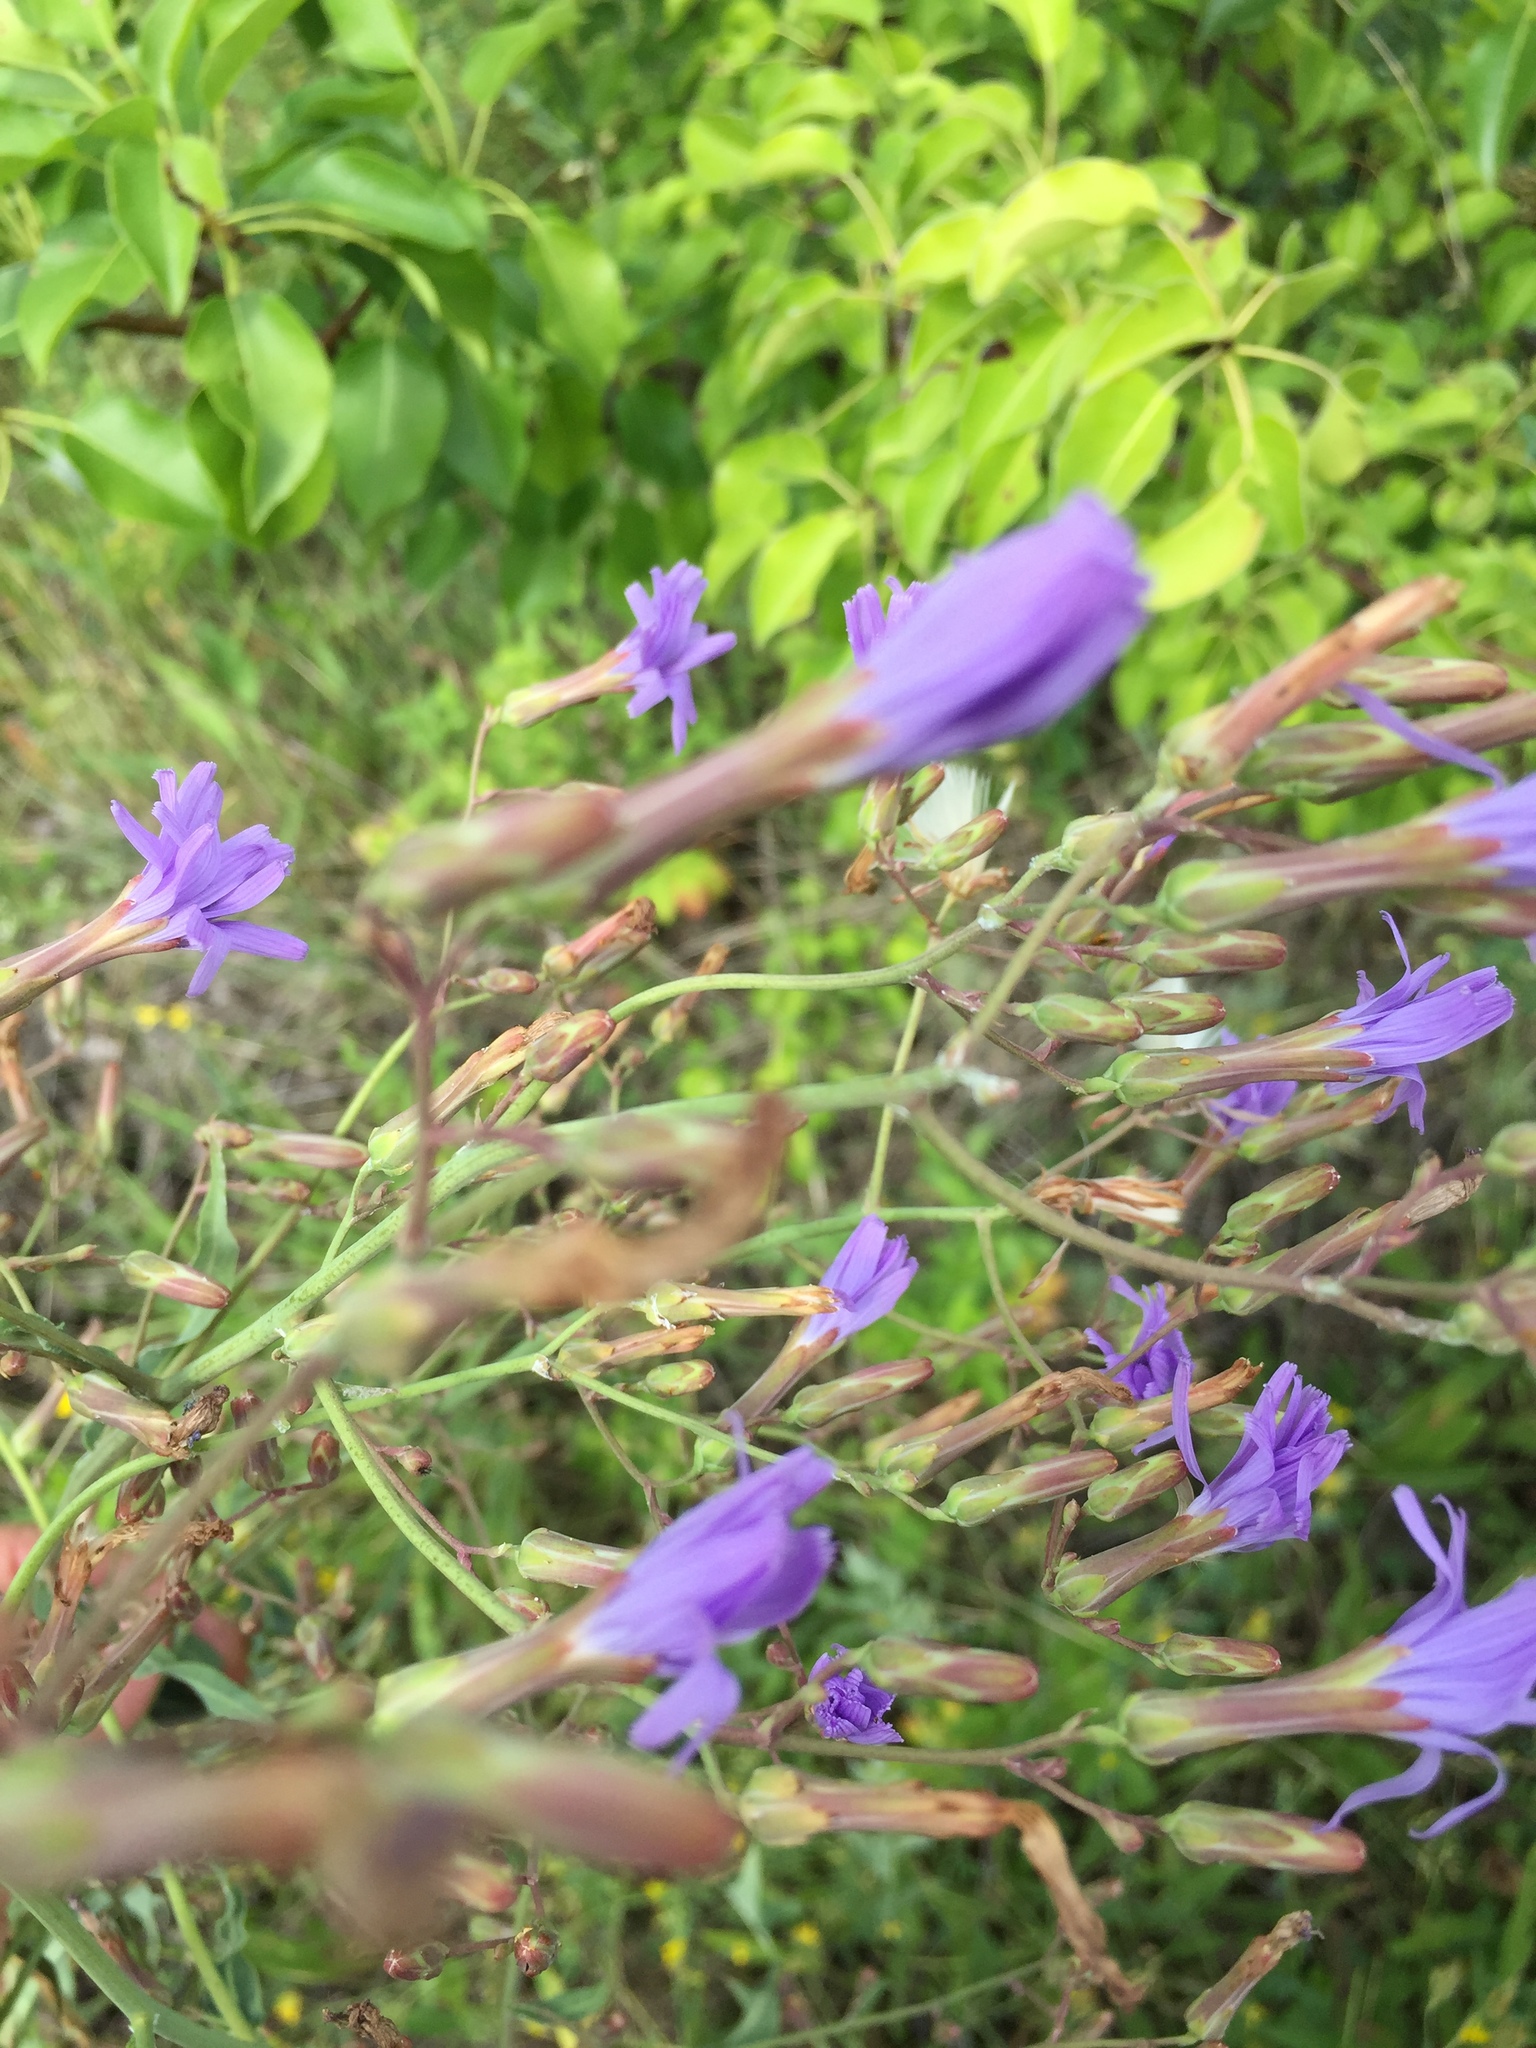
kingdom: Plantae
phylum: Tracheophyta
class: Magnoliopsida
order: Asterales
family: Asteraceae
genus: Lactuca
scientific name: Lactuca tatarica
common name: Blue lettuce
